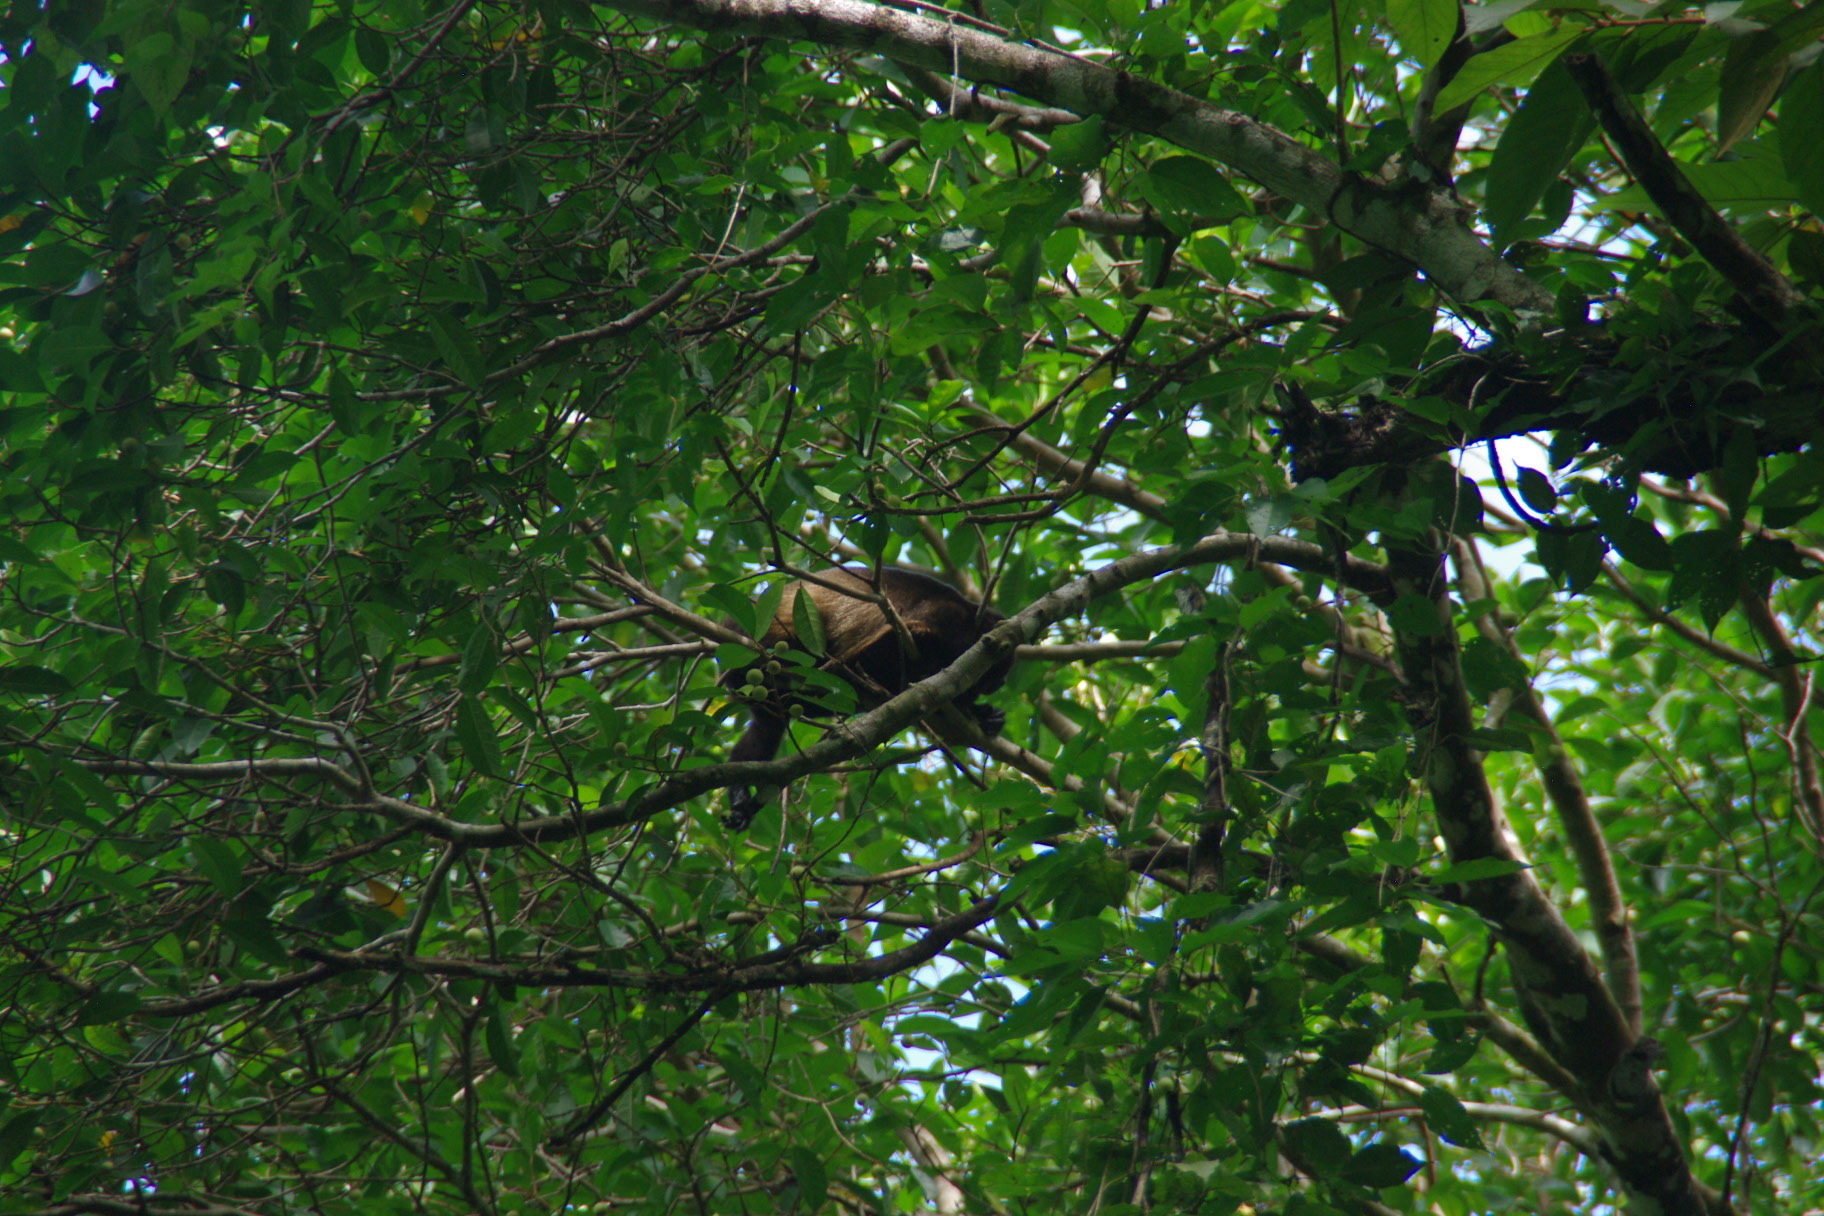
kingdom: Animalia
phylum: Chordata
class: Mammalia
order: Primates
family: Atelidae
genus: Alouatta
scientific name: Alouatta palliata
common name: Mantled howler
